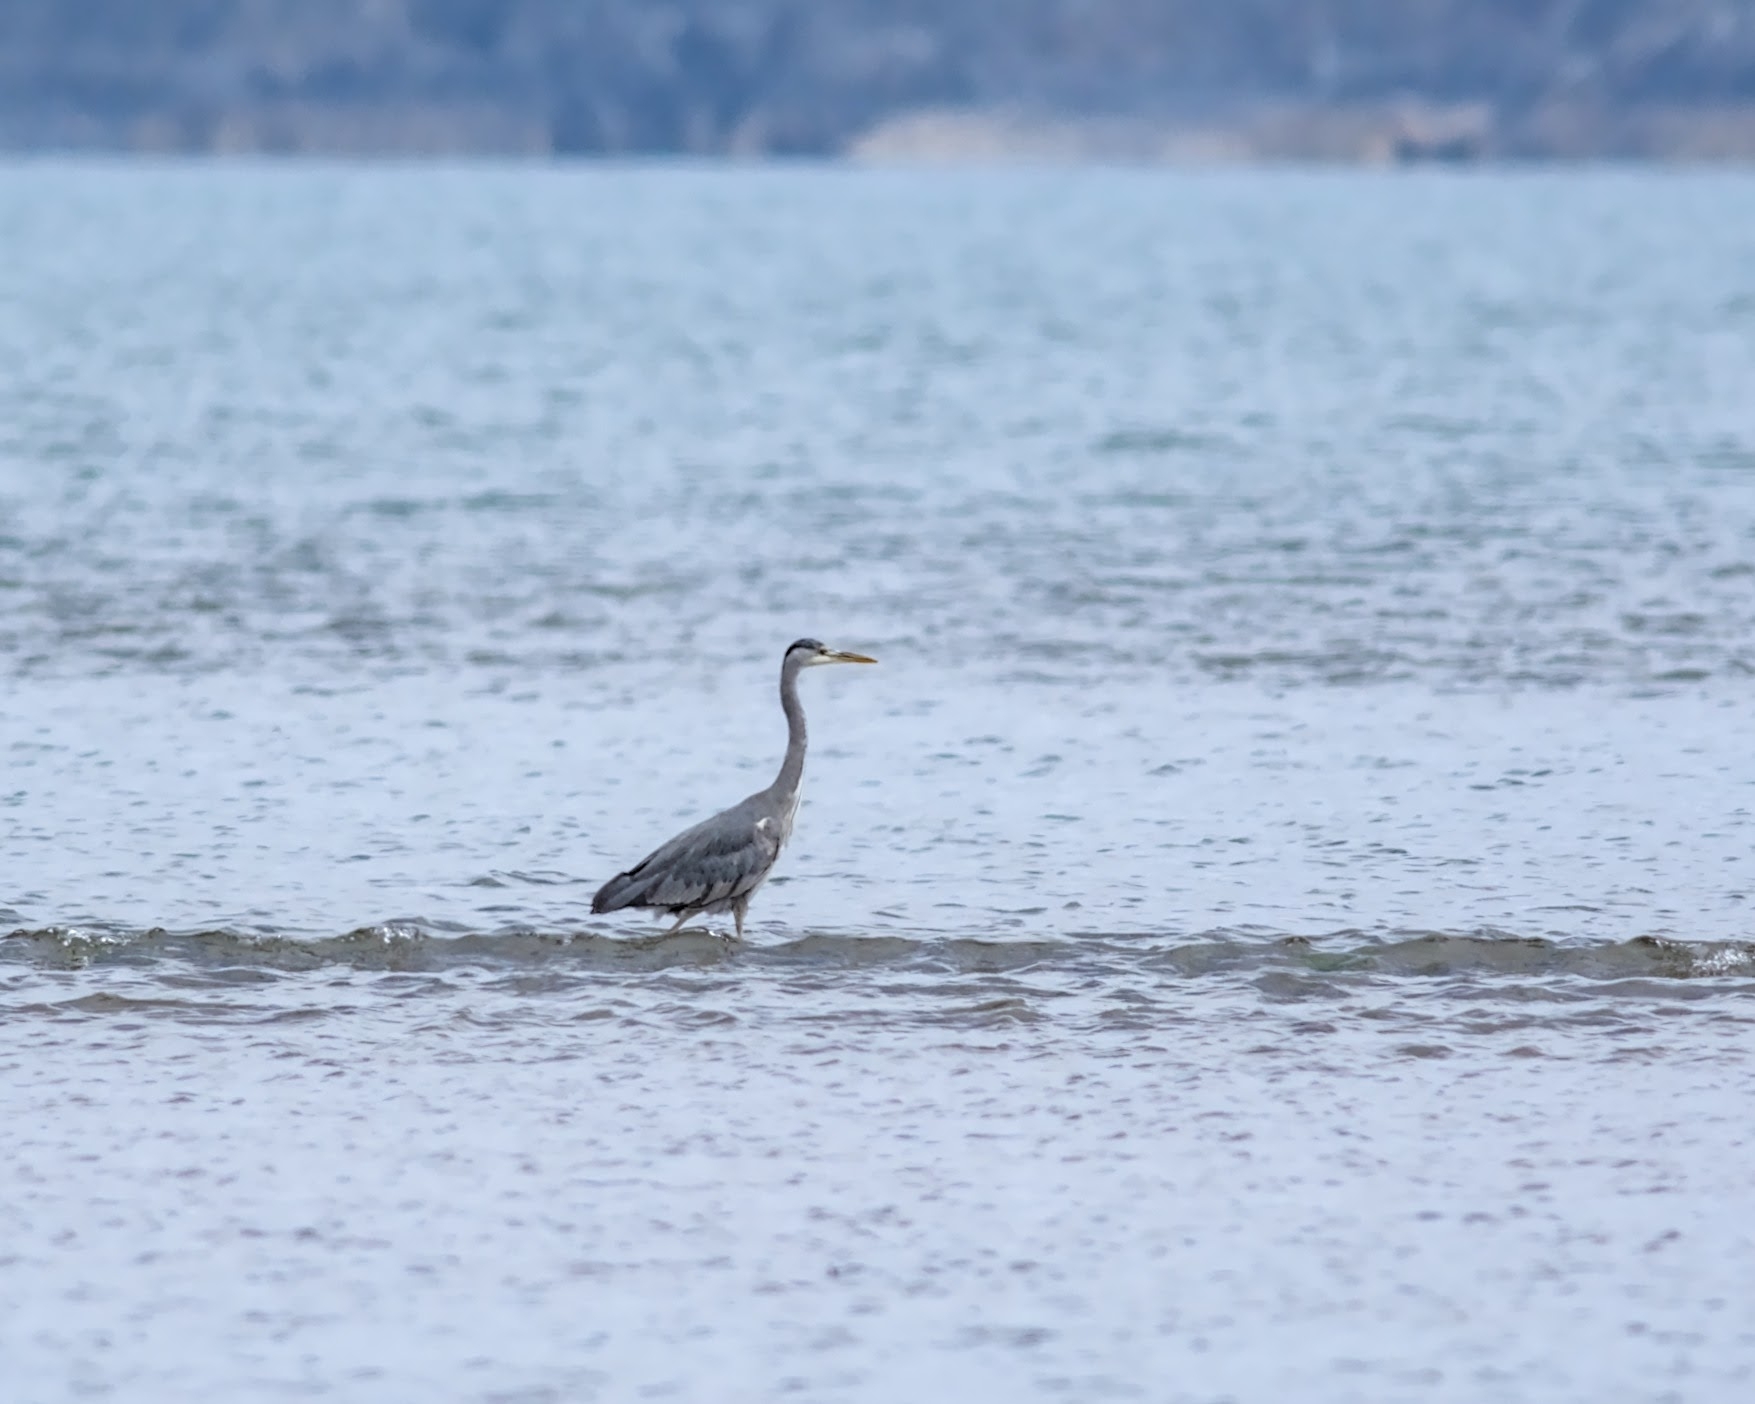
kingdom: Animalia
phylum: Chordata
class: Aves
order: Pelecaniformes
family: Ardeidae
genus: Ardea
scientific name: Ardea cinerea
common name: Grey heron
